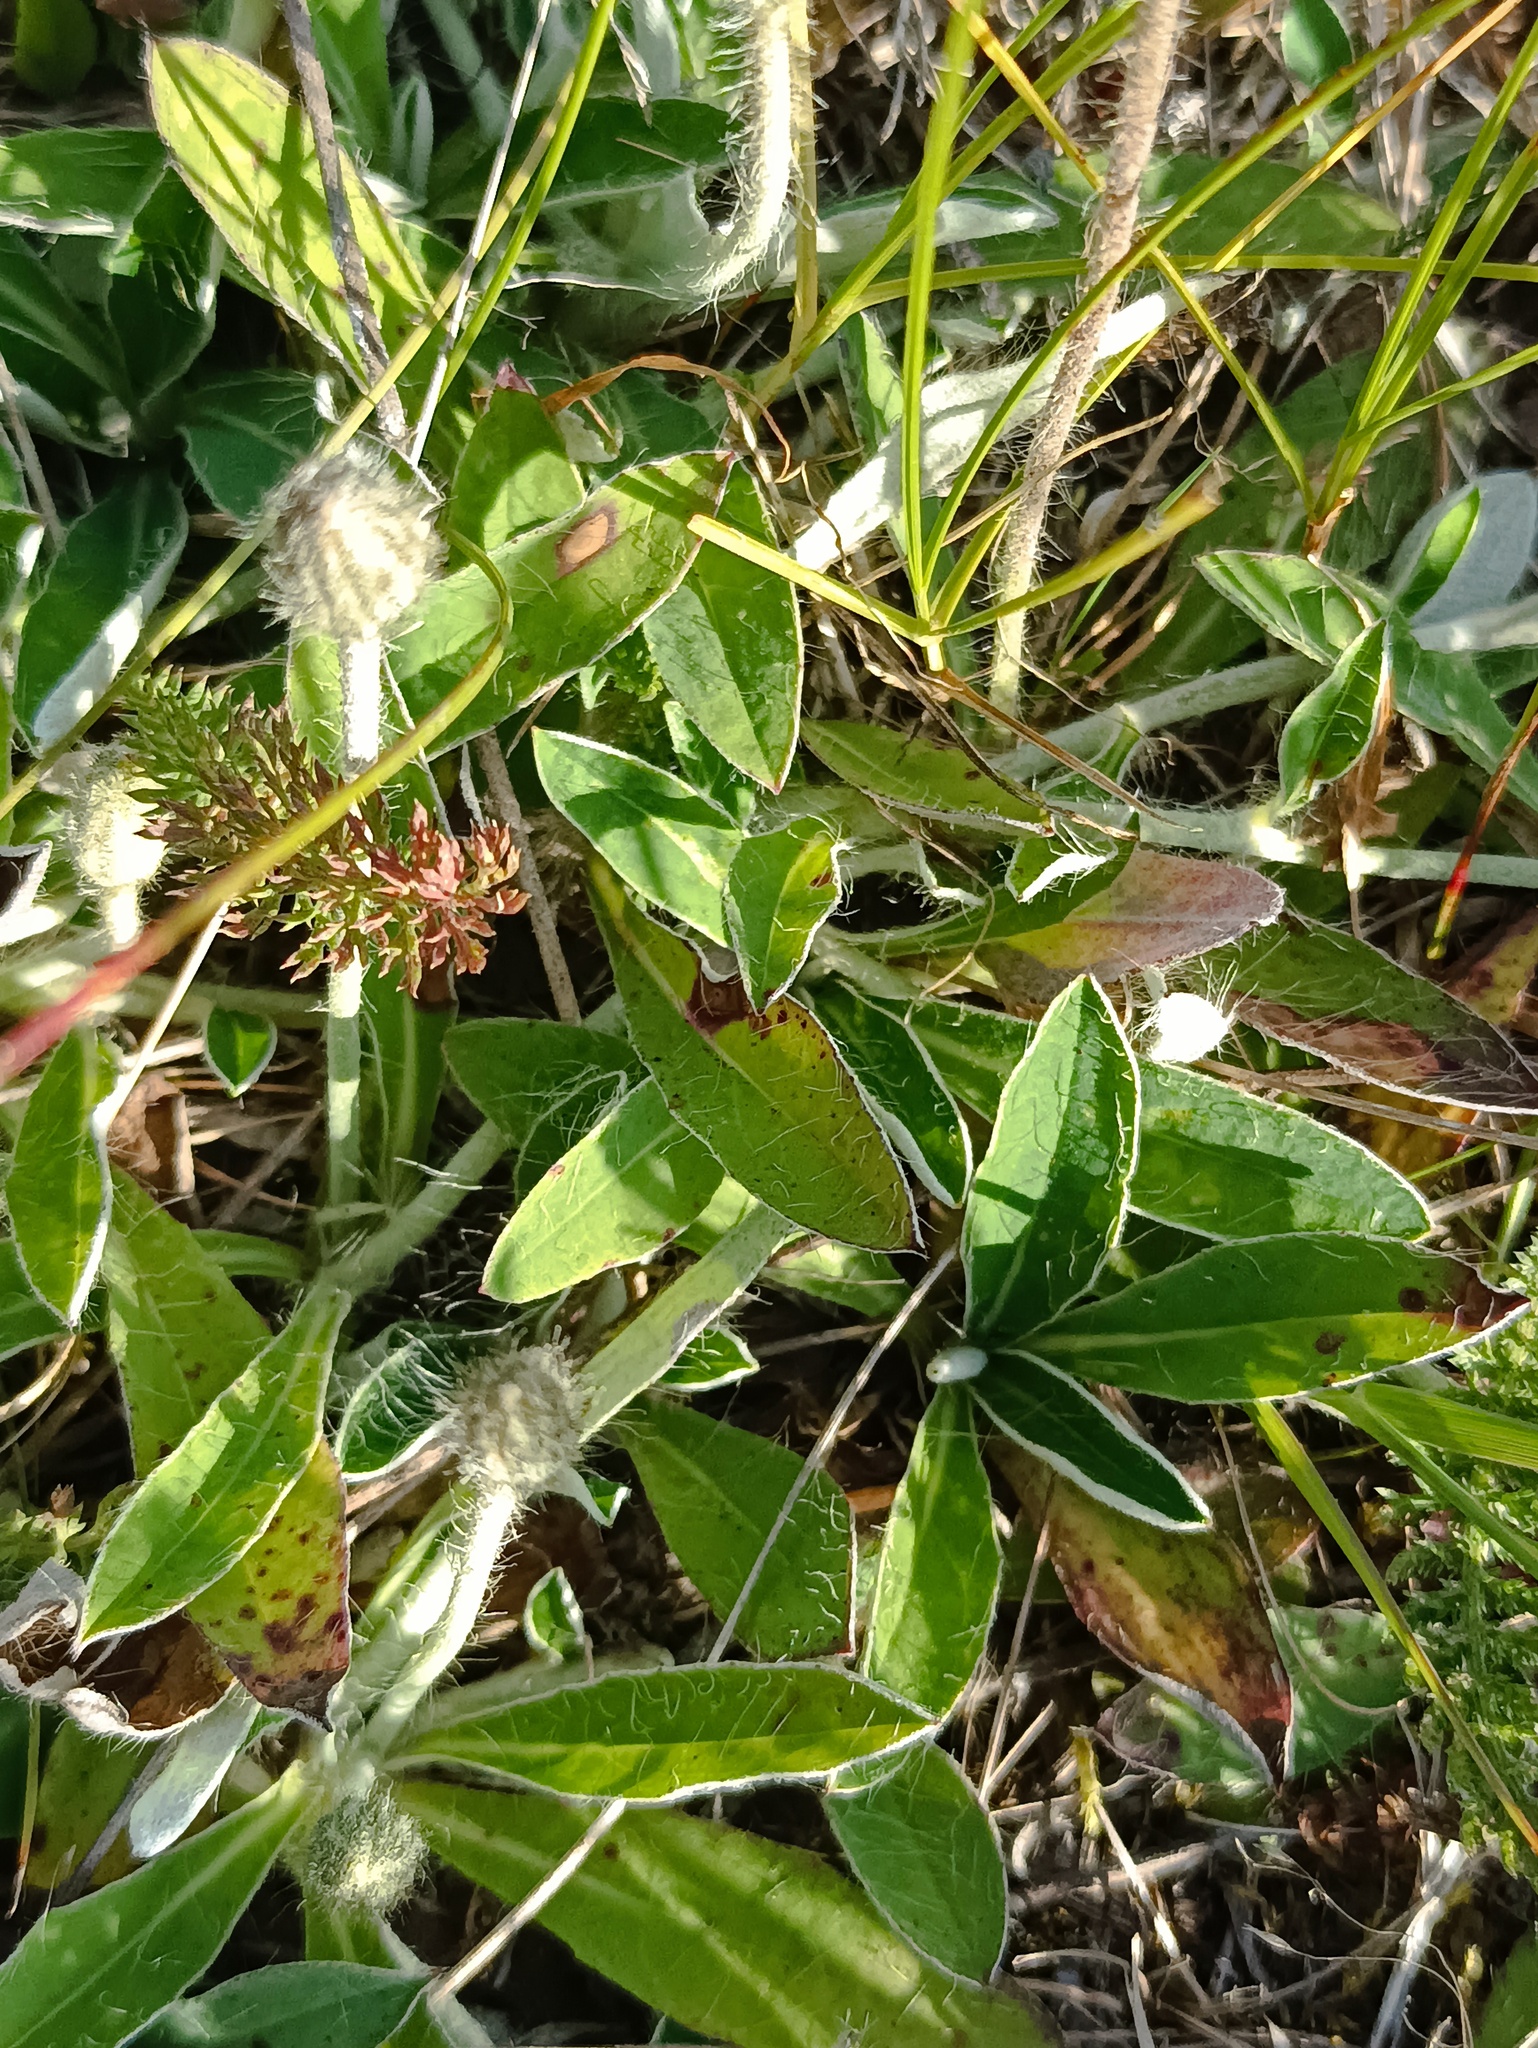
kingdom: Plantae
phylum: Tracheophyta
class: Magnoliopsida
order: Asterales
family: Asteraceae
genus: Pilosella
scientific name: Pilosella officinarum
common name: Mouse-ear hawkweed
